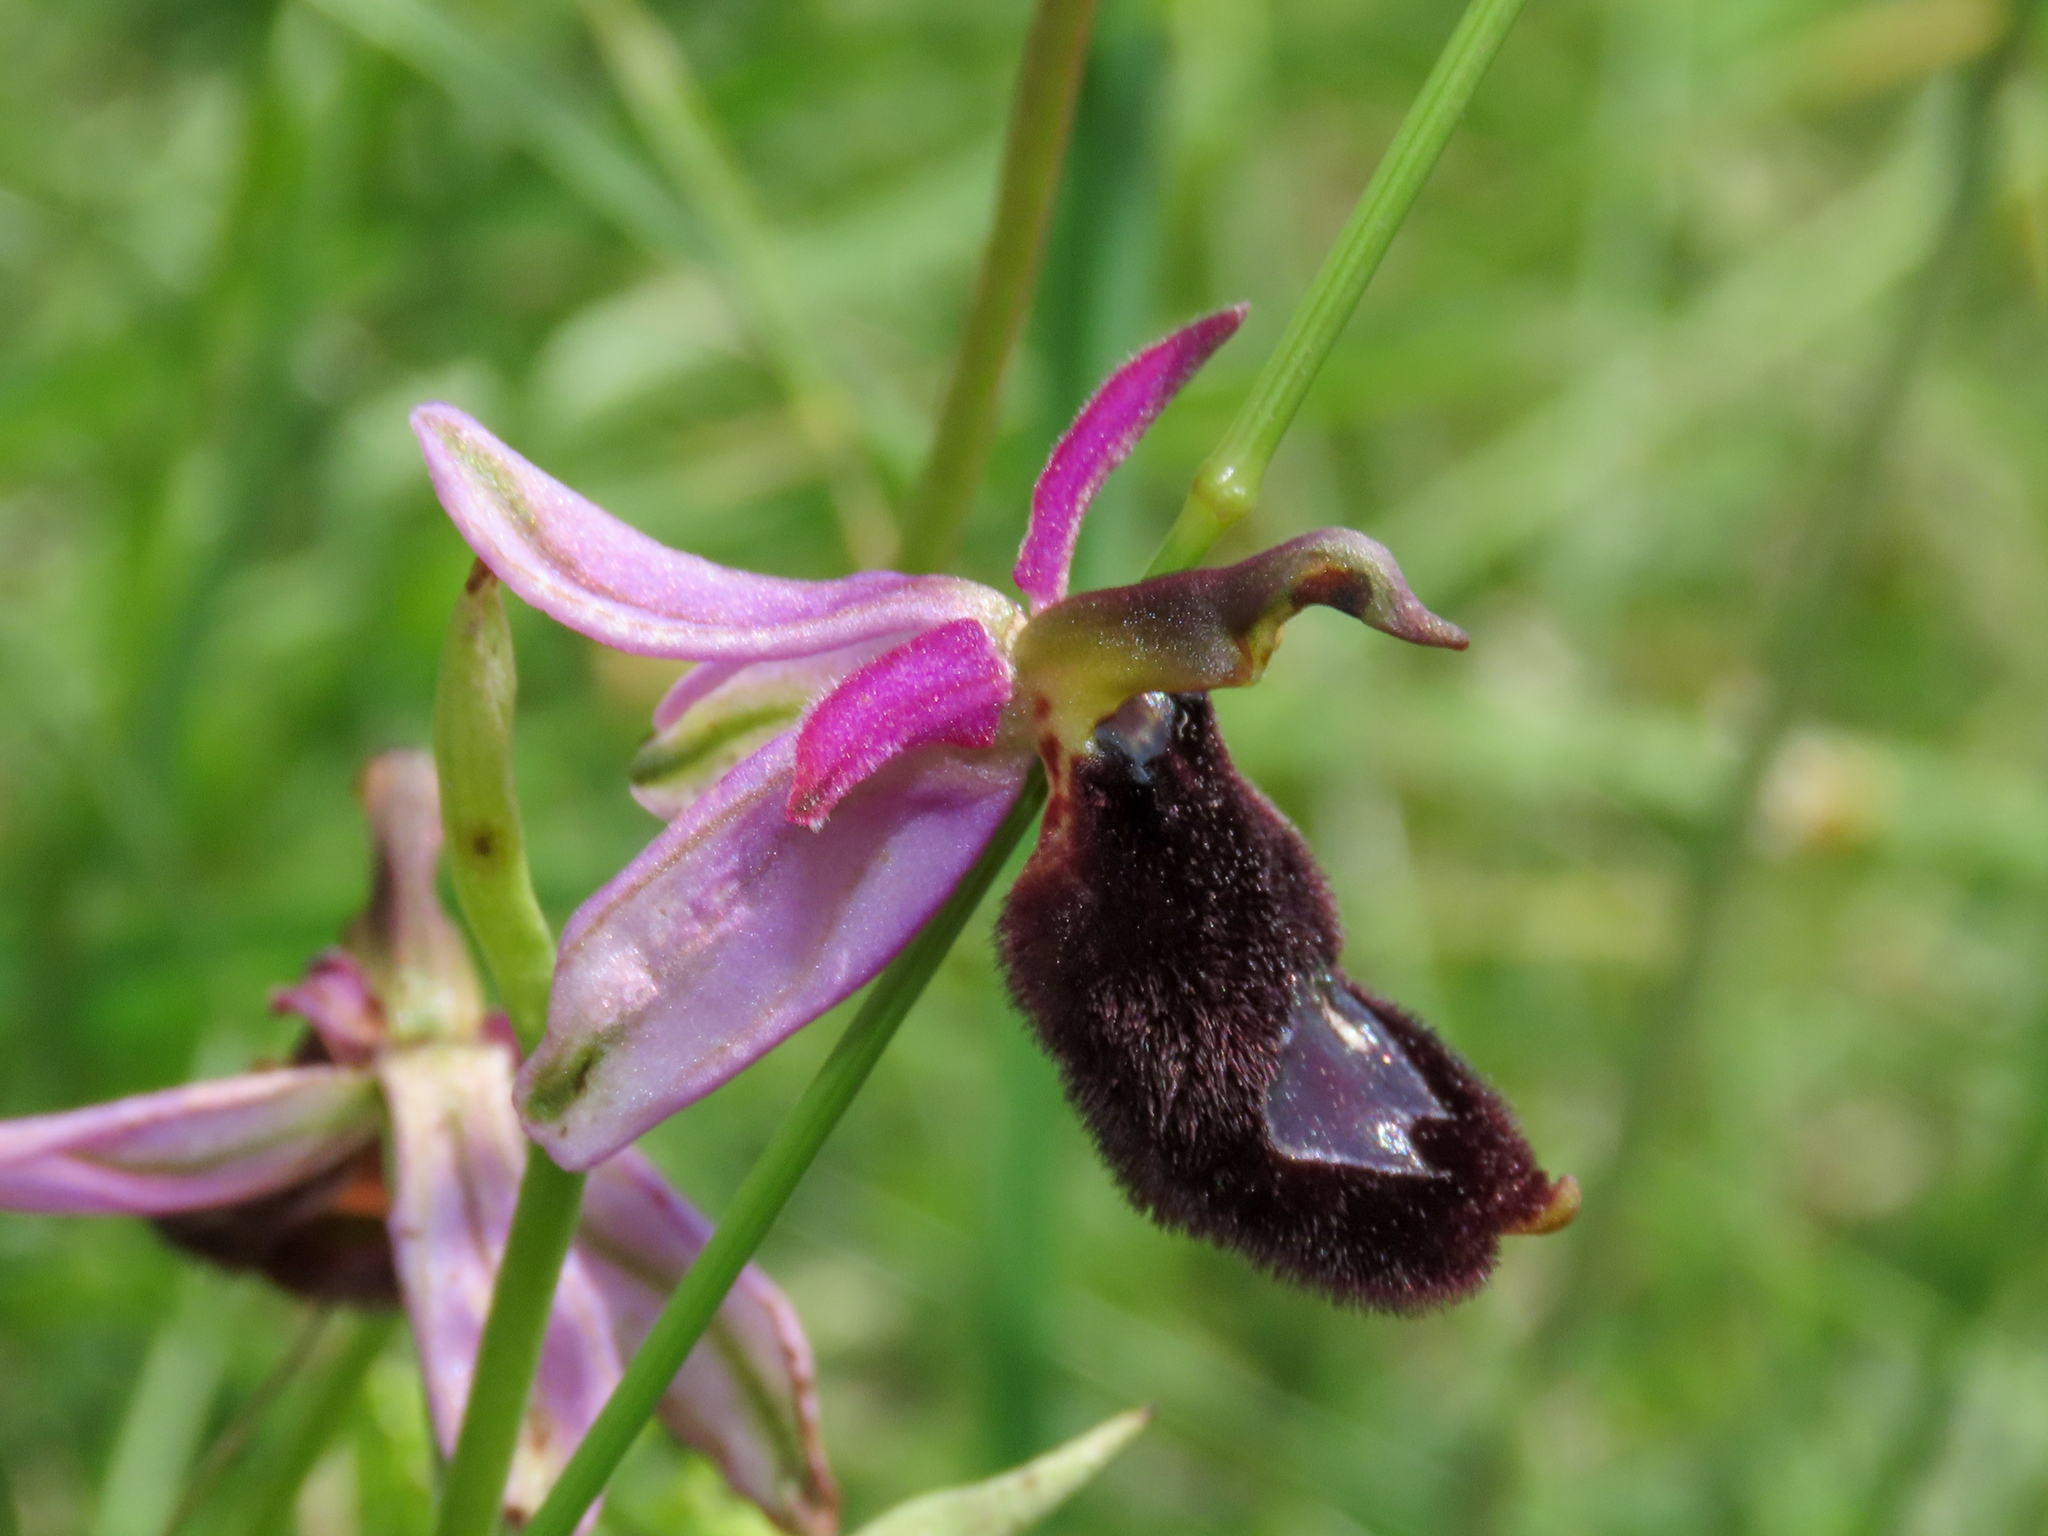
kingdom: Plantae
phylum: Tracheophyta
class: Liliopsida
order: Asparagales
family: Orchidaceae
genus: Ophrys
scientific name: Ophrys bertolonii
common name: Bertoloni's bee orchid
